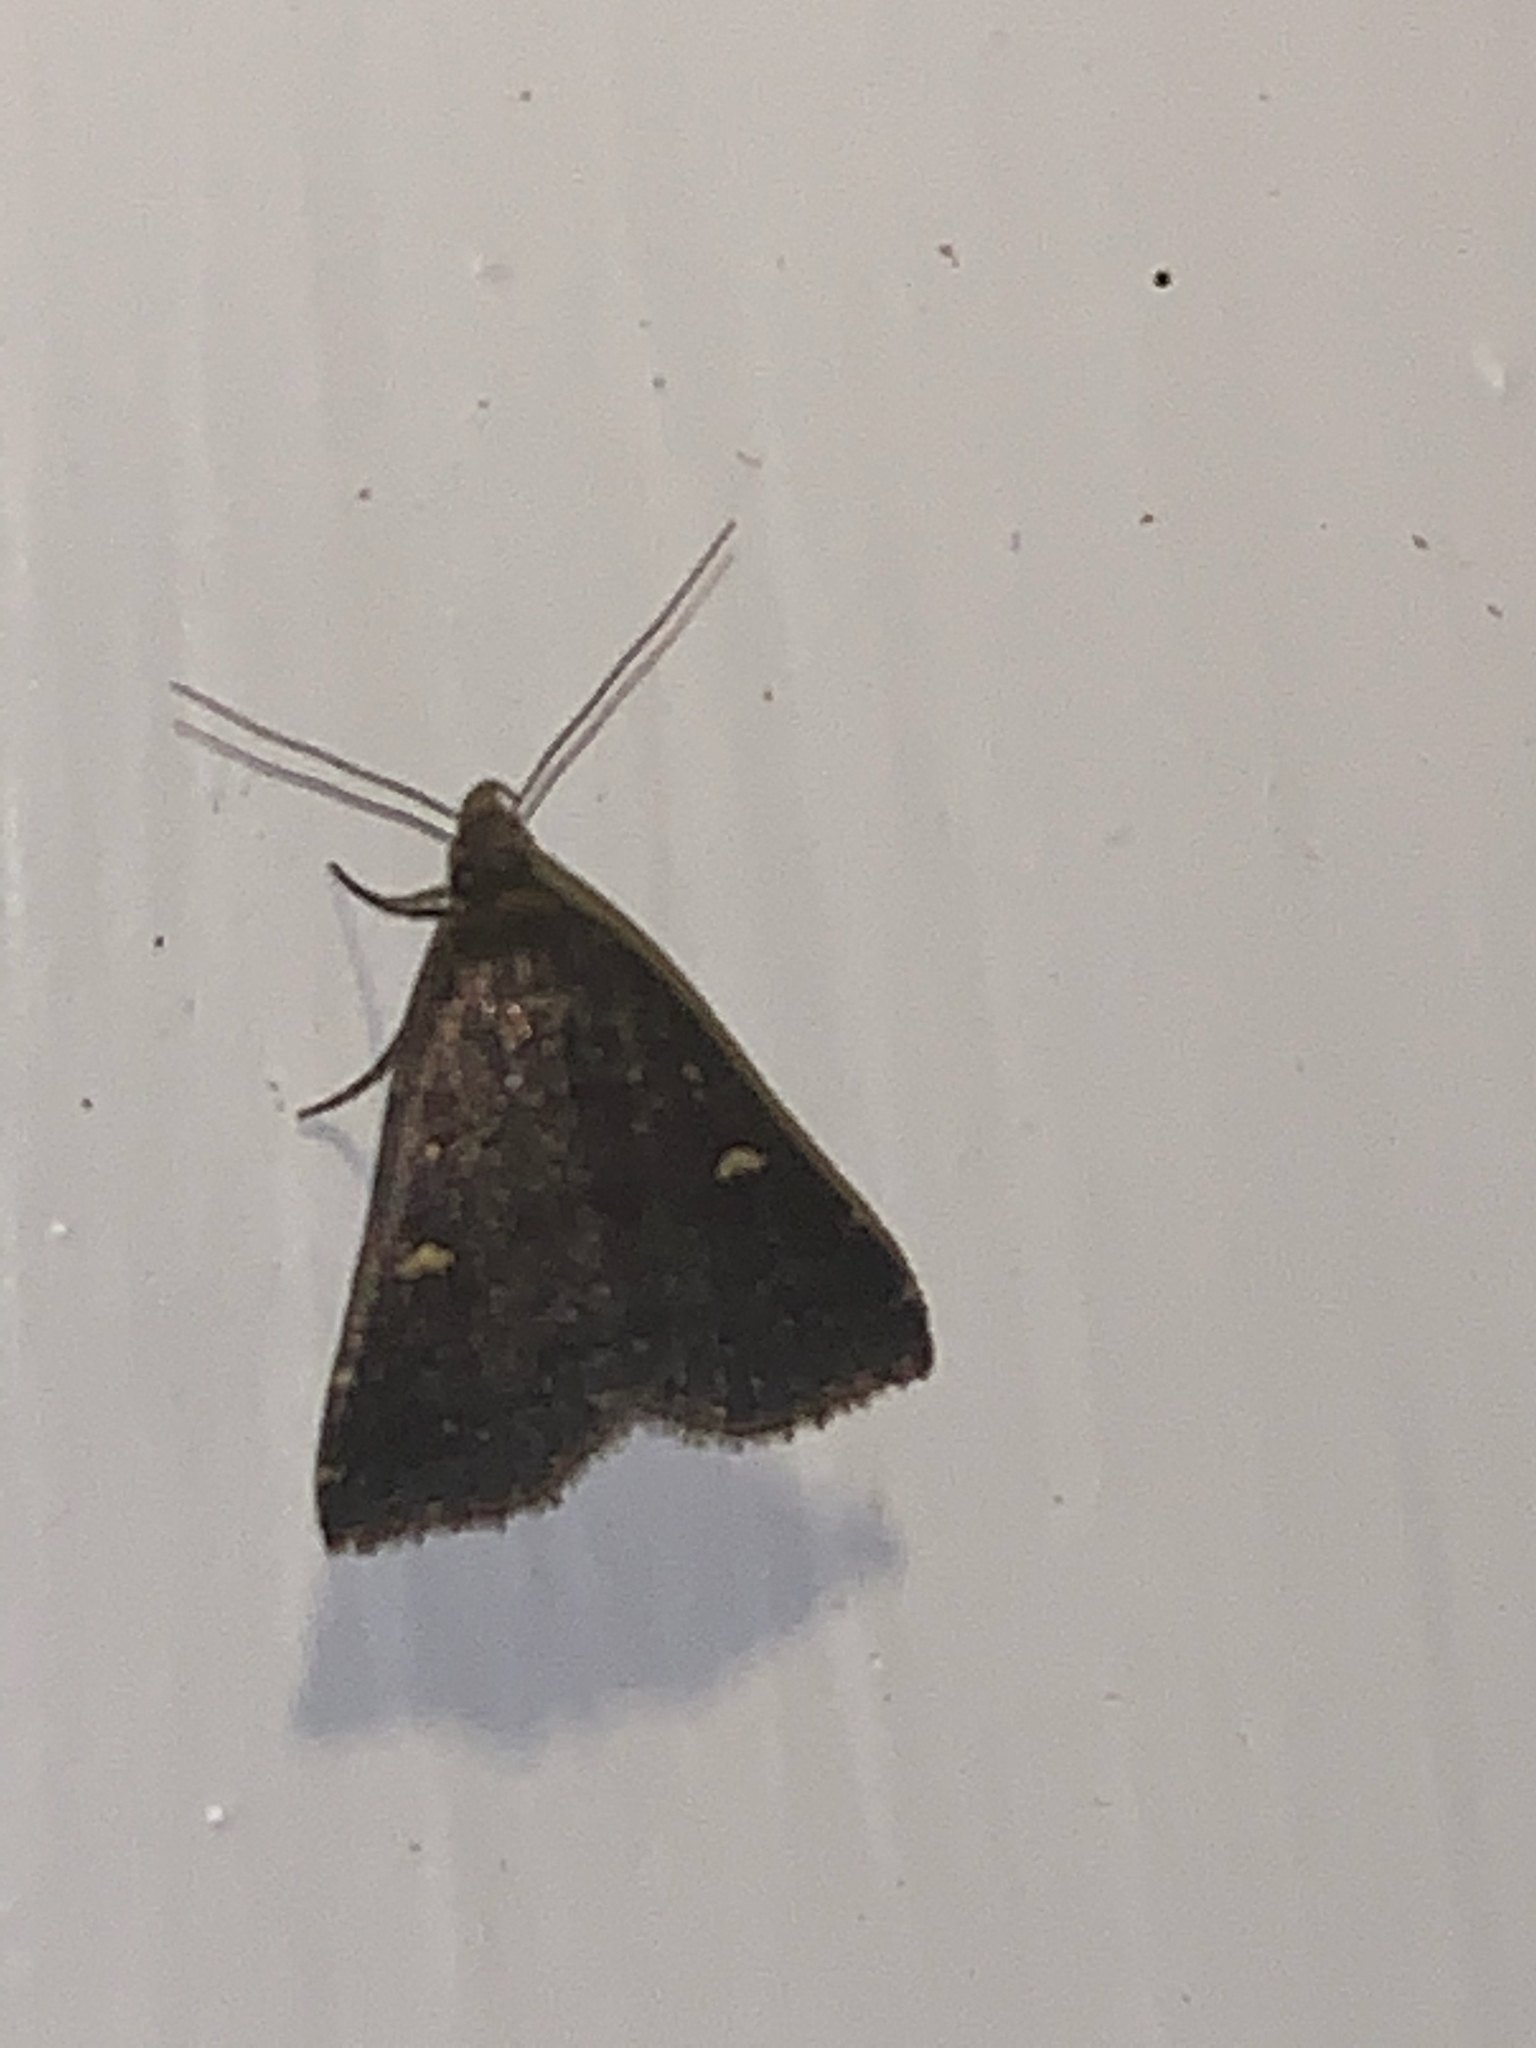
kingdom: Animalia
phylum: Arthropoda
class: Insecta
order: Lepidoptera
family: Erebidae
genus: Tetanolita
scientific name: Tetanolita mynesalis
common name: Smoky tetanolita moth
